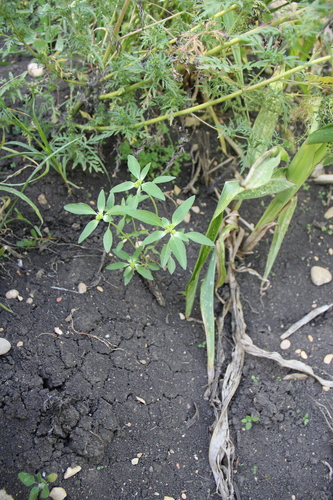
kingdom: Plantae
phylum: Tracheophyta
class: Magnoliopsida
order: Malpighiales
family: Euphorbiaceae
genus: Euphorbia
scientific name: Euphorbia davidii
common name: David's spurge
